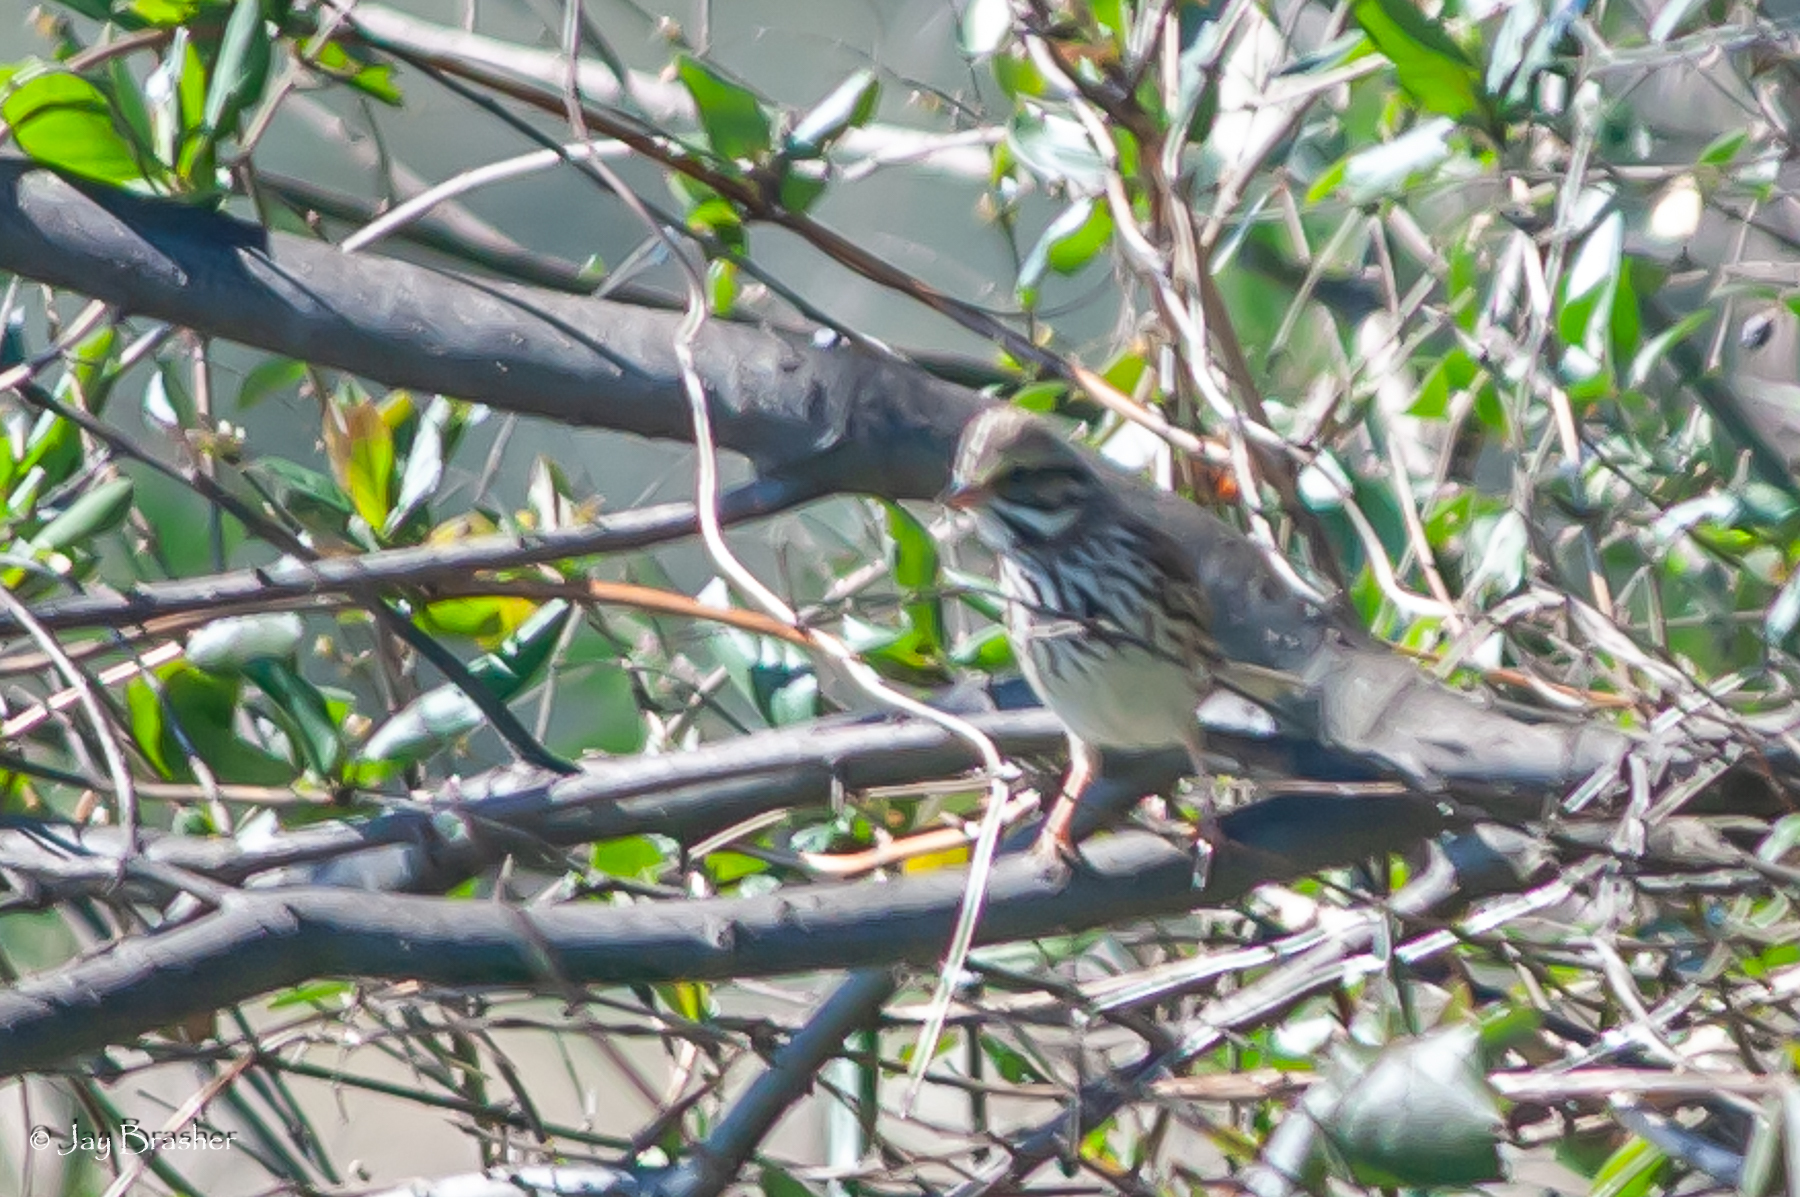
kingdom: Animalia
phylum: Chordata
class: Aves
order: Passeriformes
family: Passerellidae
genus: Melospiza
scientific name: Melospiza melodia
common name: Song sparrow
